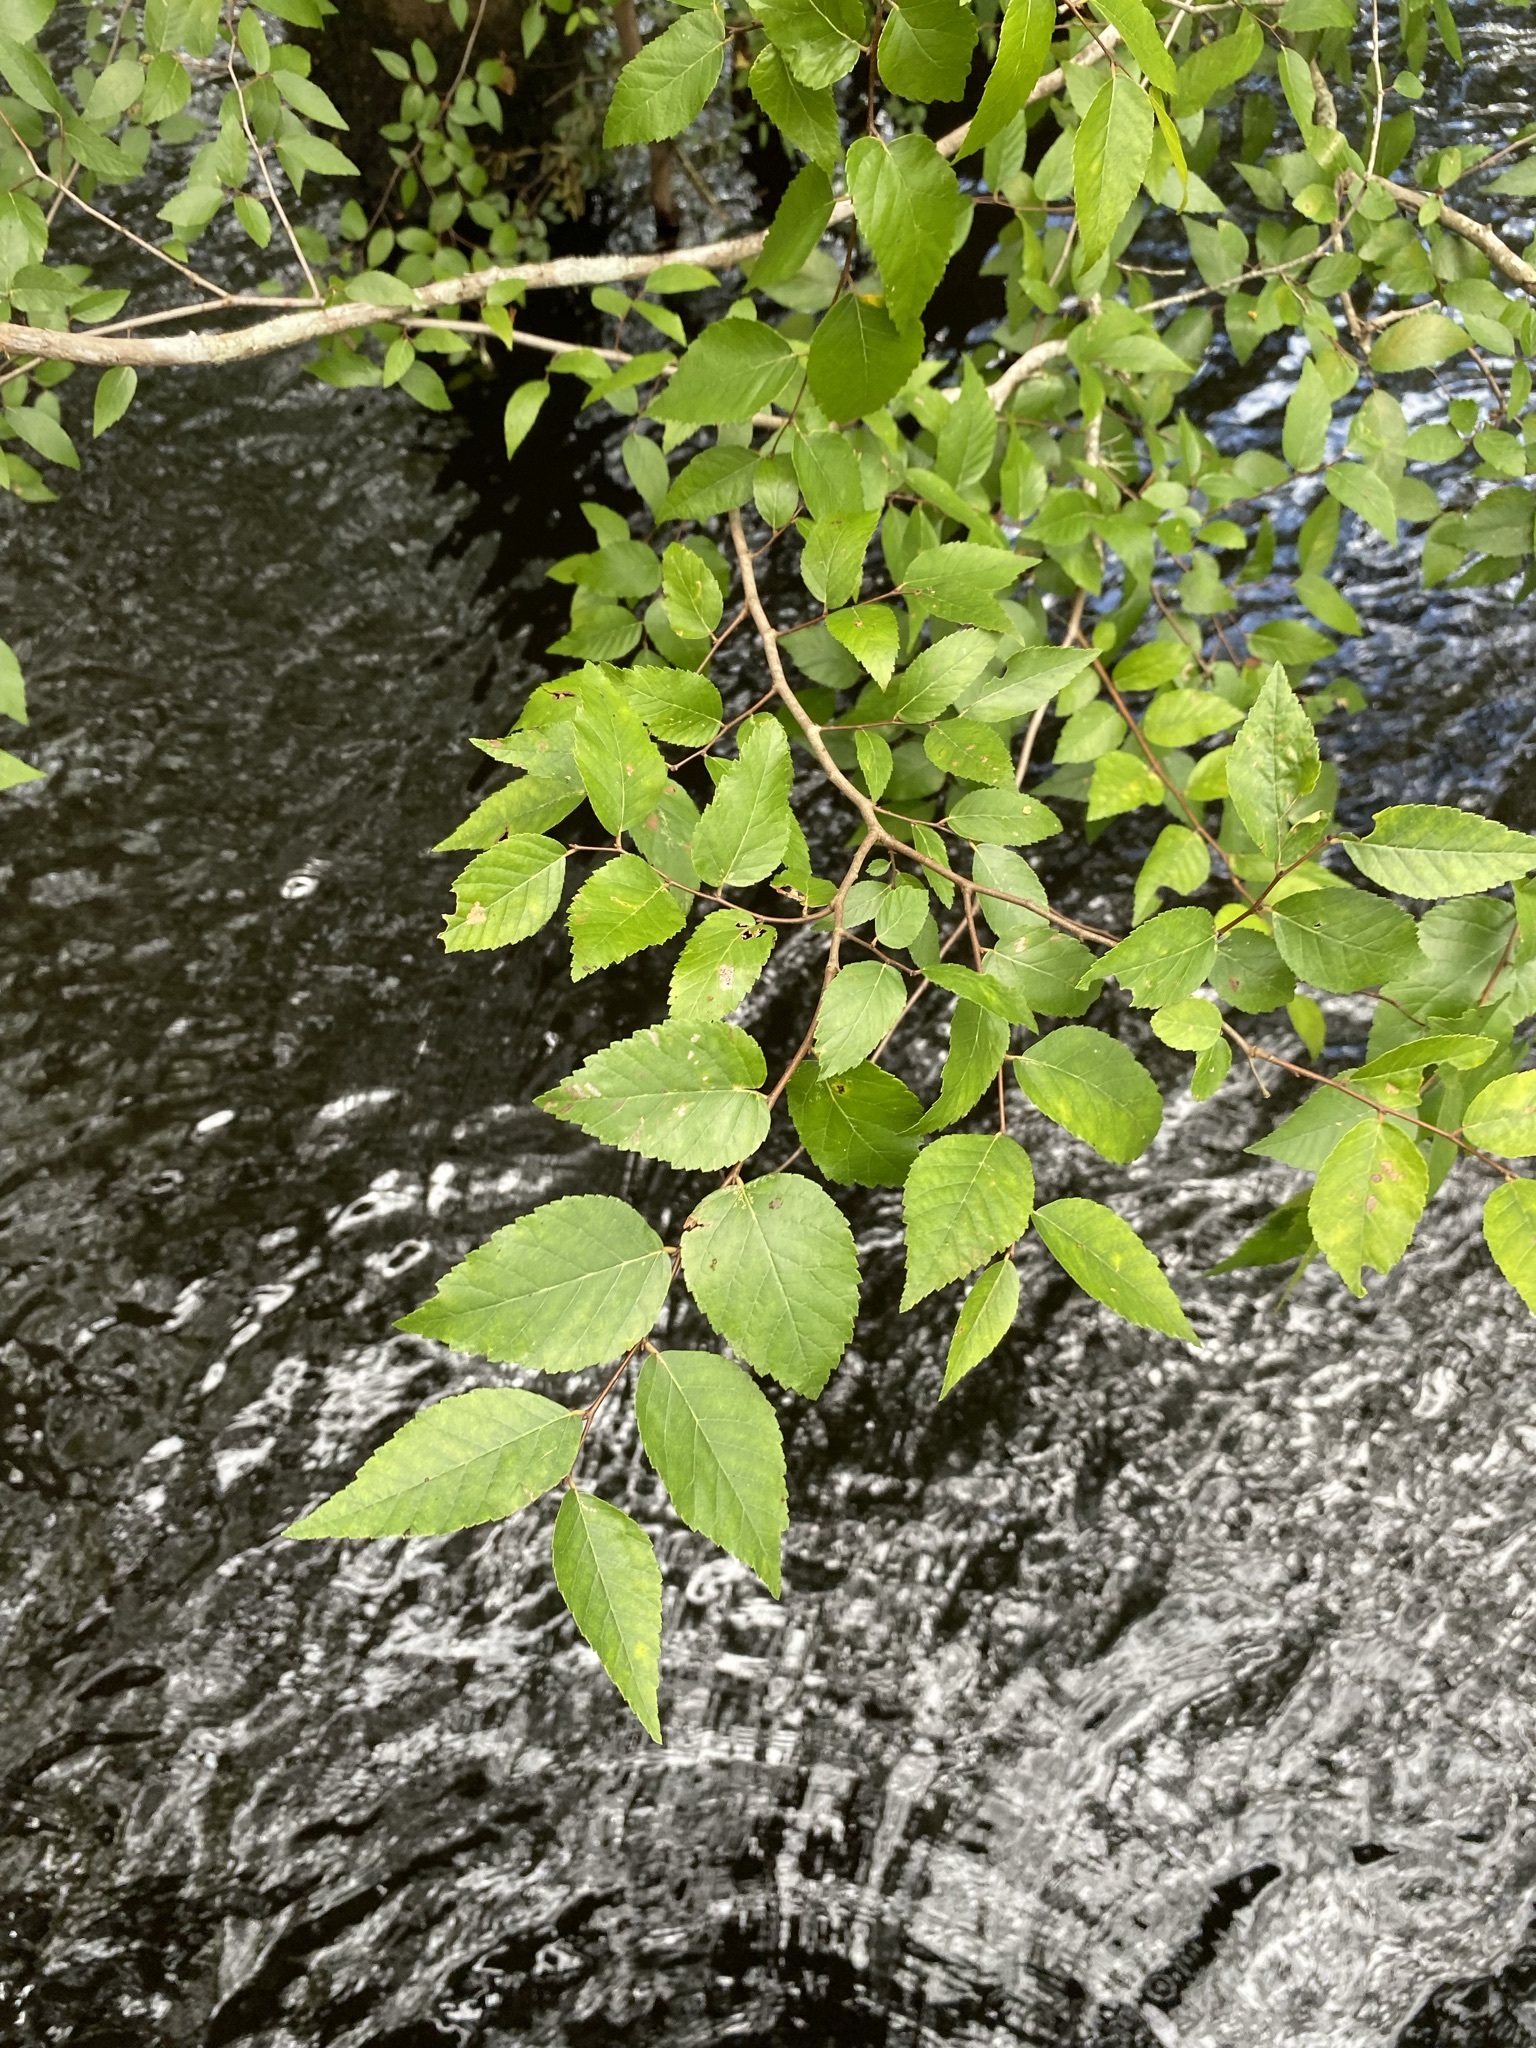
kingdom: Plantae
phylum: Tracheophyta
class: Magnoliopsida
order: Rosales
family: Ulmaceae
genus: Planera
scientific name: Planera aquatica
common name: Water-elm
